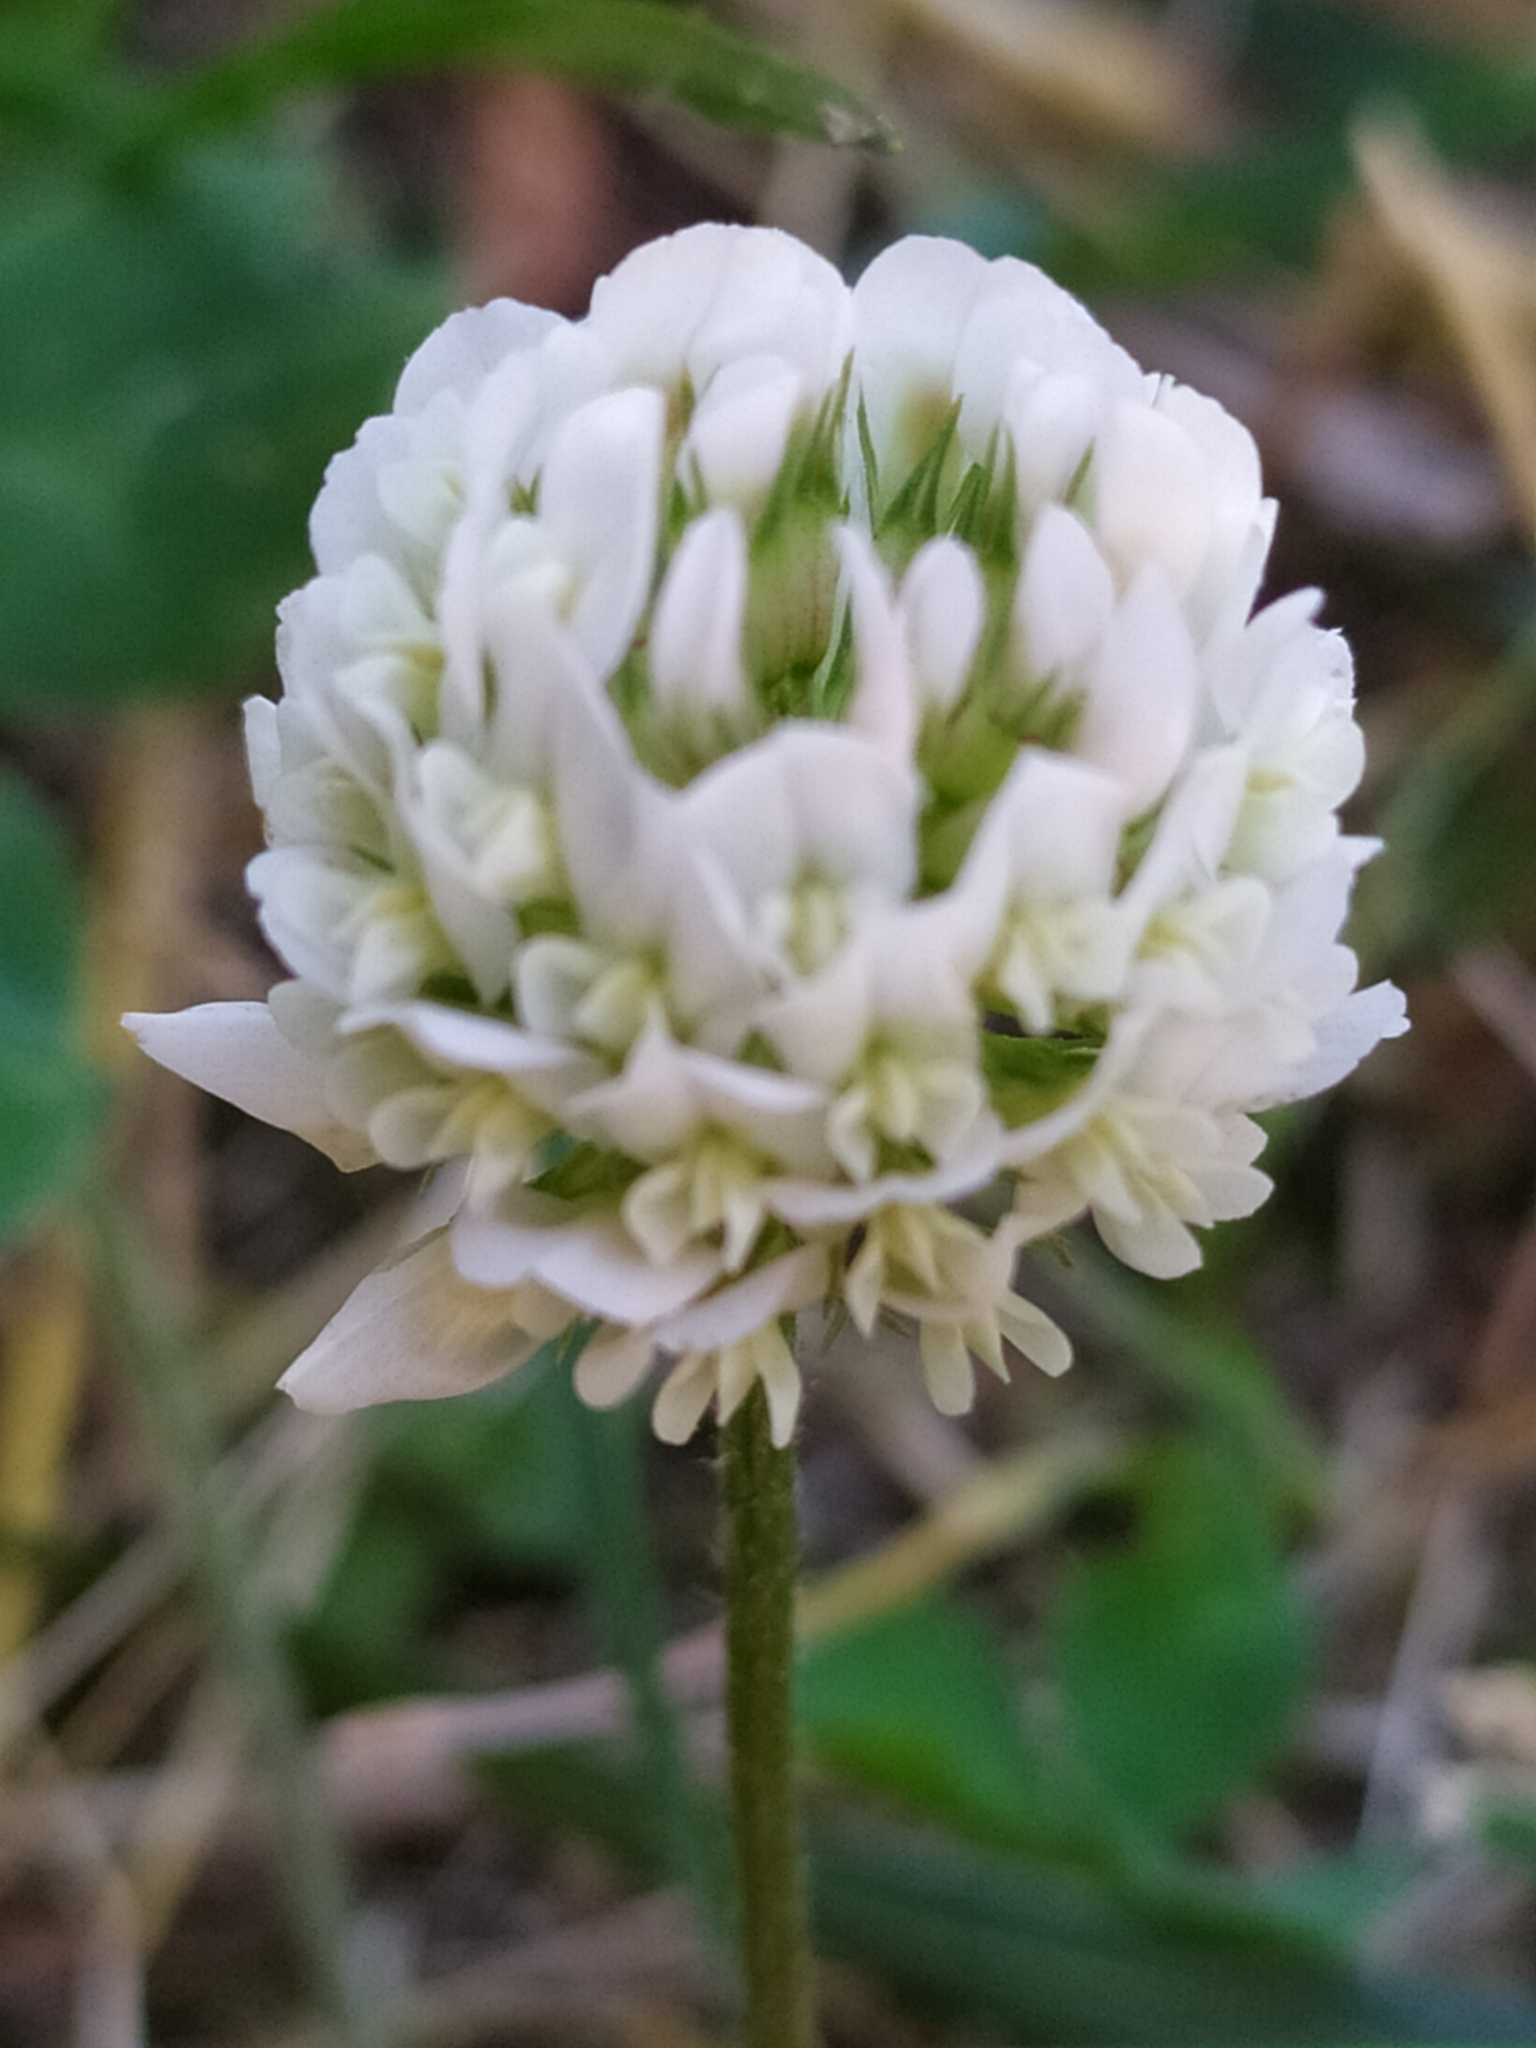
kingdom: Plantae
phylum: Tracheophyta
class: Magnoliopsida
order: Fabales
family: Fabaceae
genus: Trifolium
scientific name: Trifolium repens
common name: White clover
